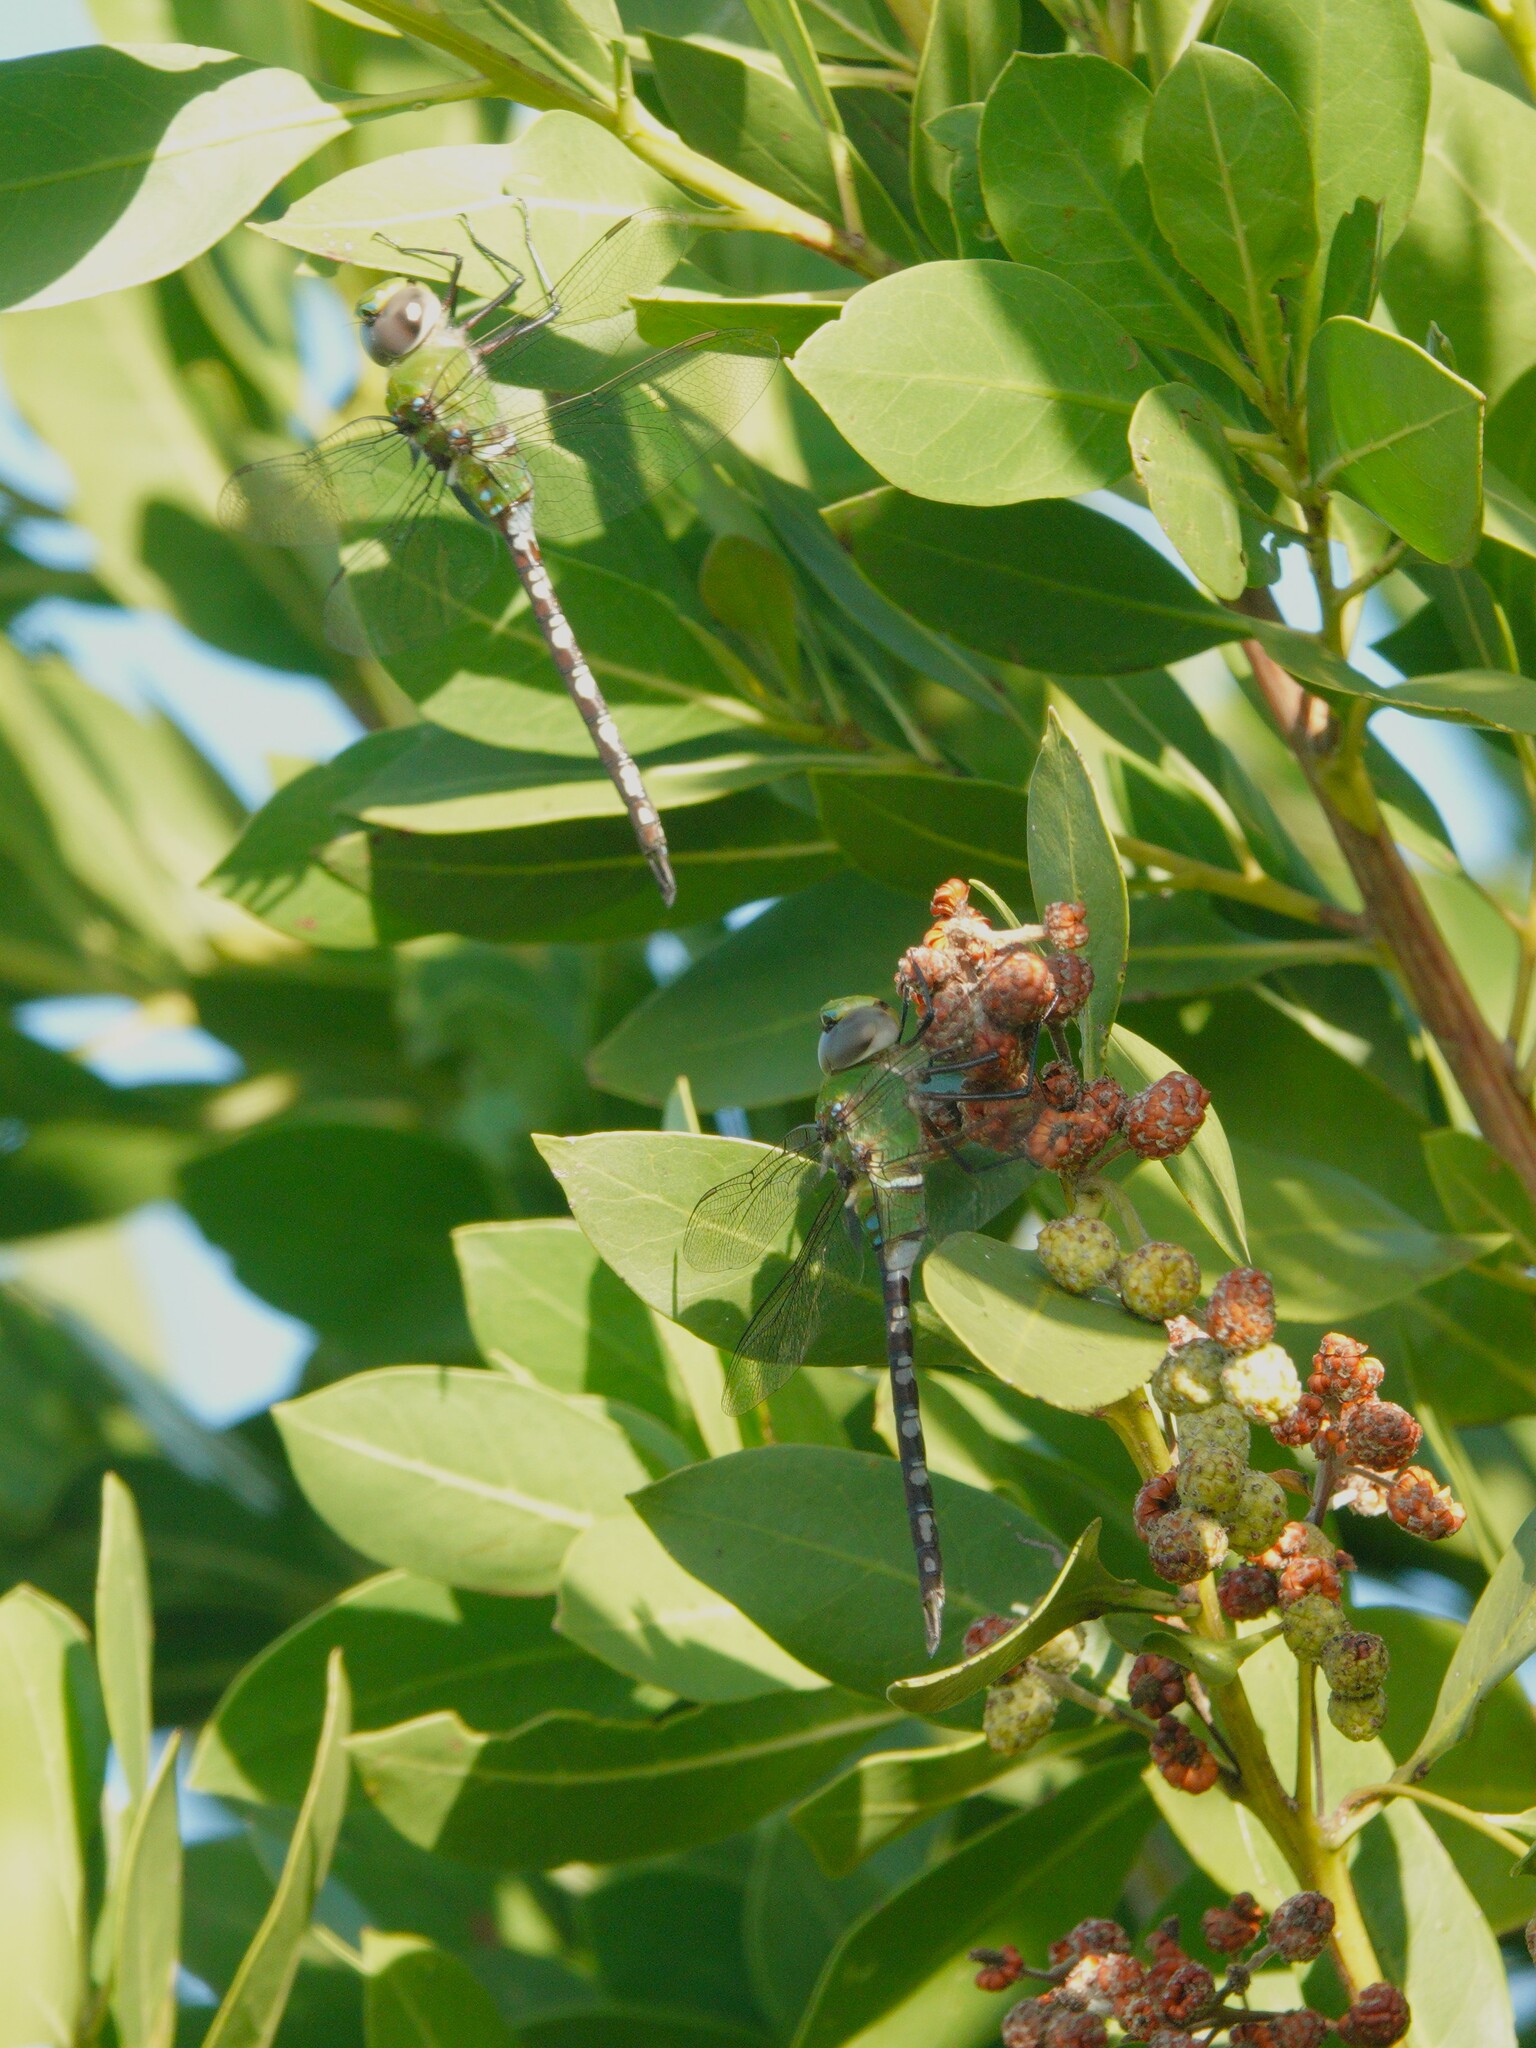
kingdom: Animalia
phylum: Arthropoda
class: Insecta
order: Odonata
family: Aeshnidae
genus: Anax
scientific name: Anax amazili
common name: Amazon darner
